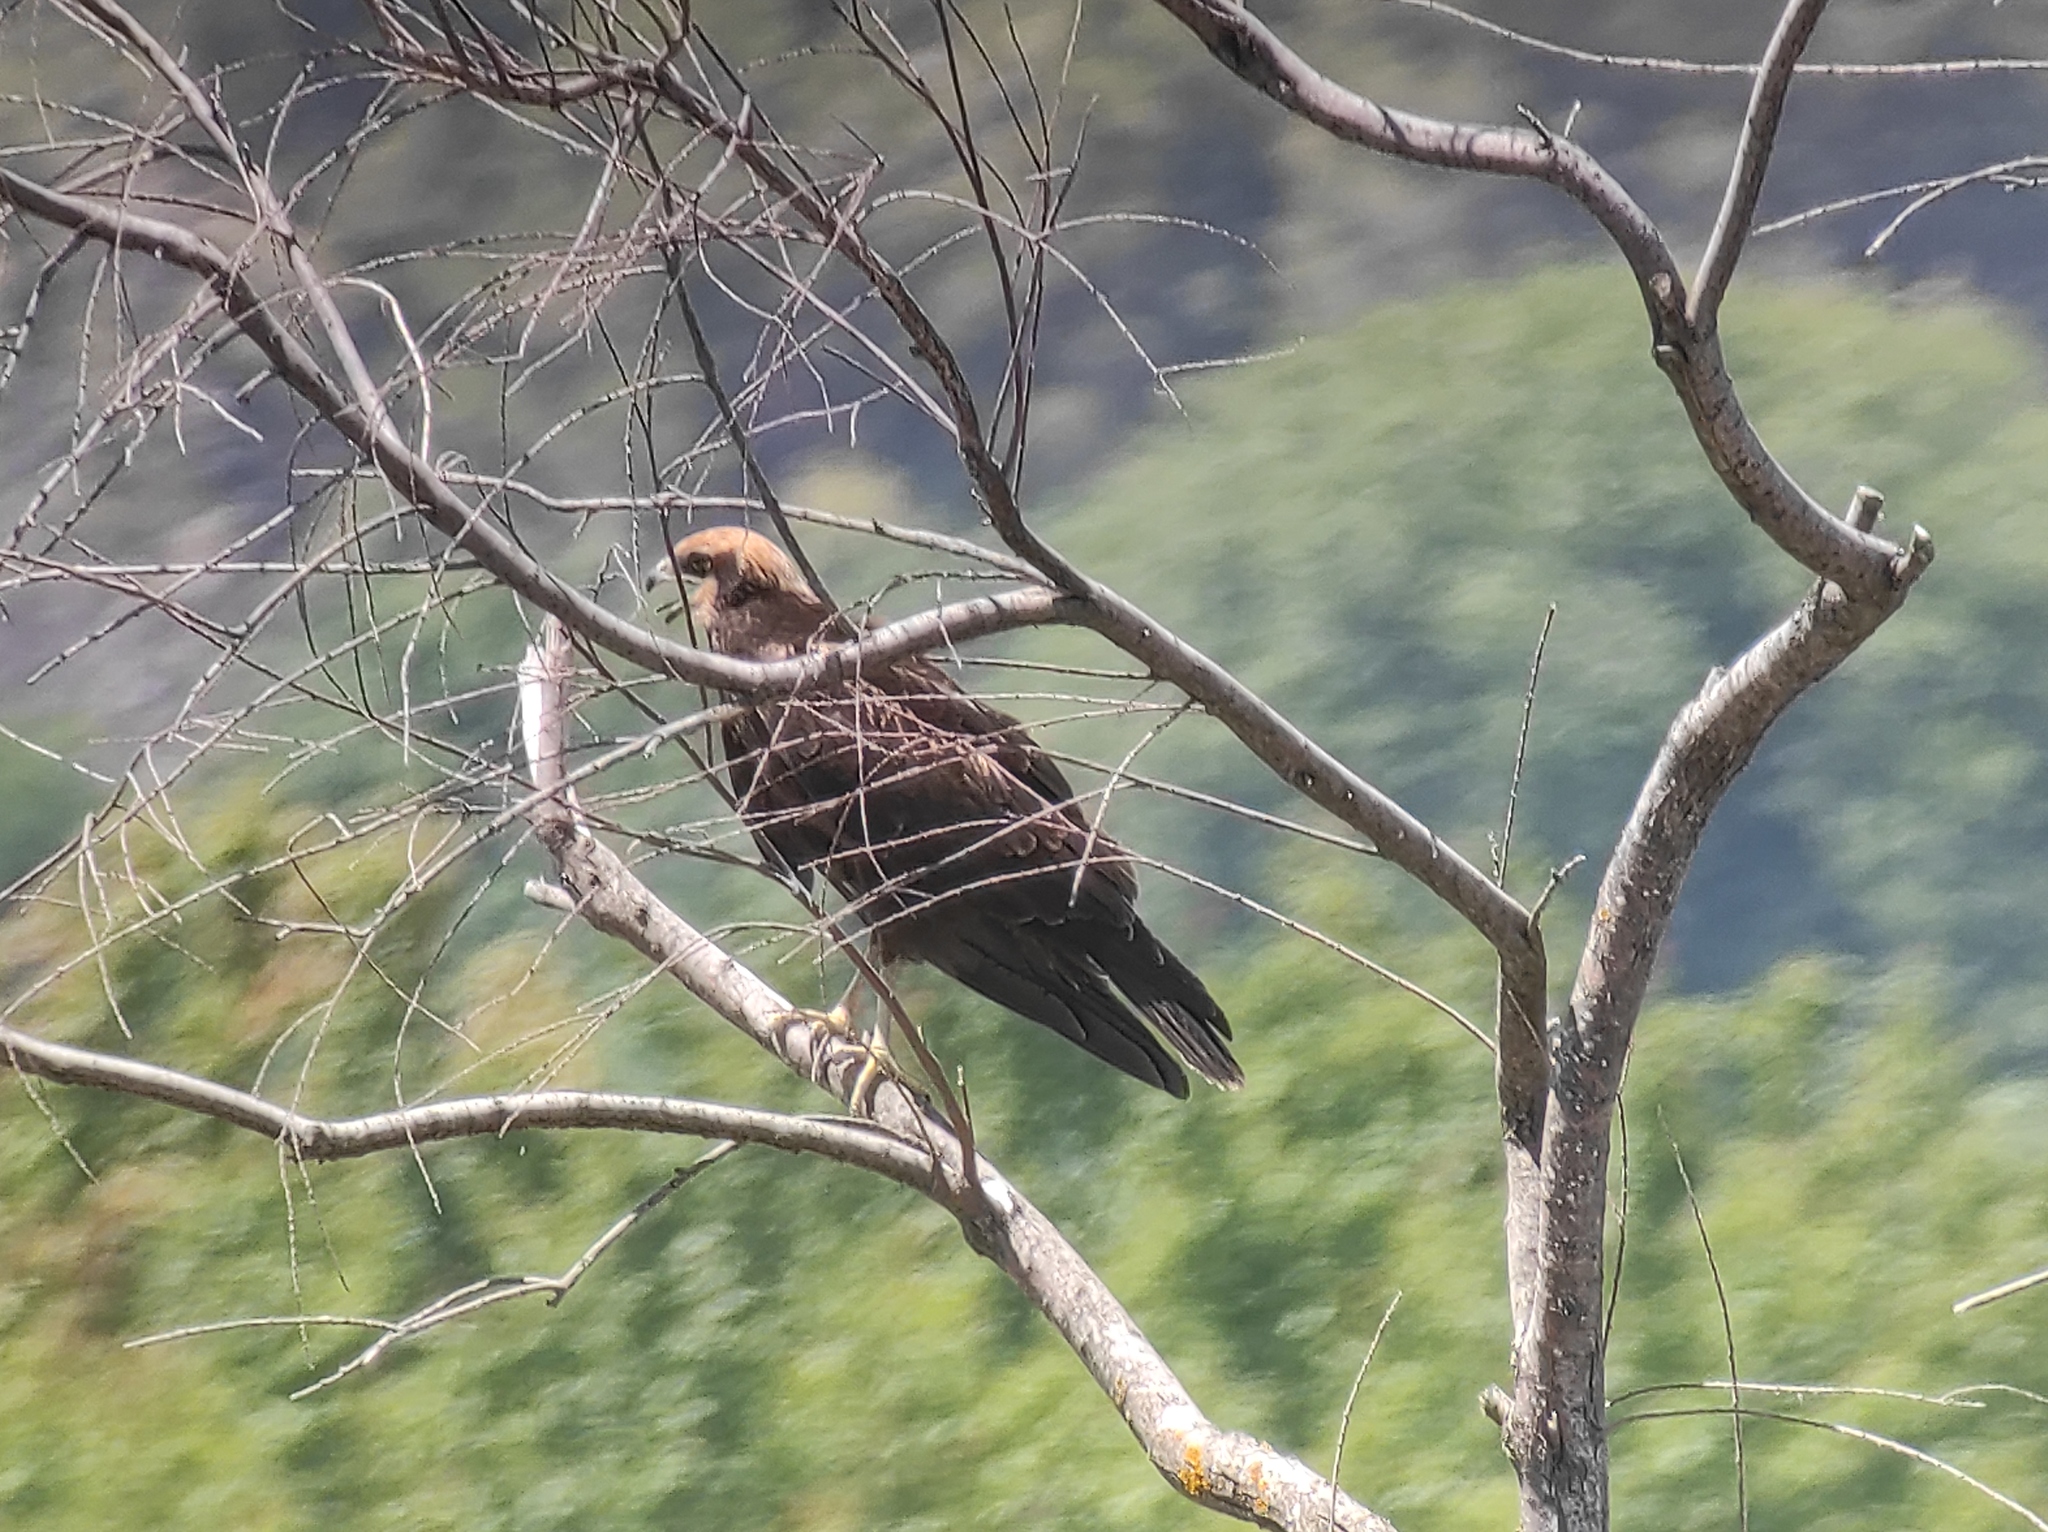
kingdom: Animalia
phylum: Chordata
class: Aves
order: Accipitriformes
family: Accipitridae
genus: Circus
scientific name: Circus aeruginosus
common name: Western marsh harrier
